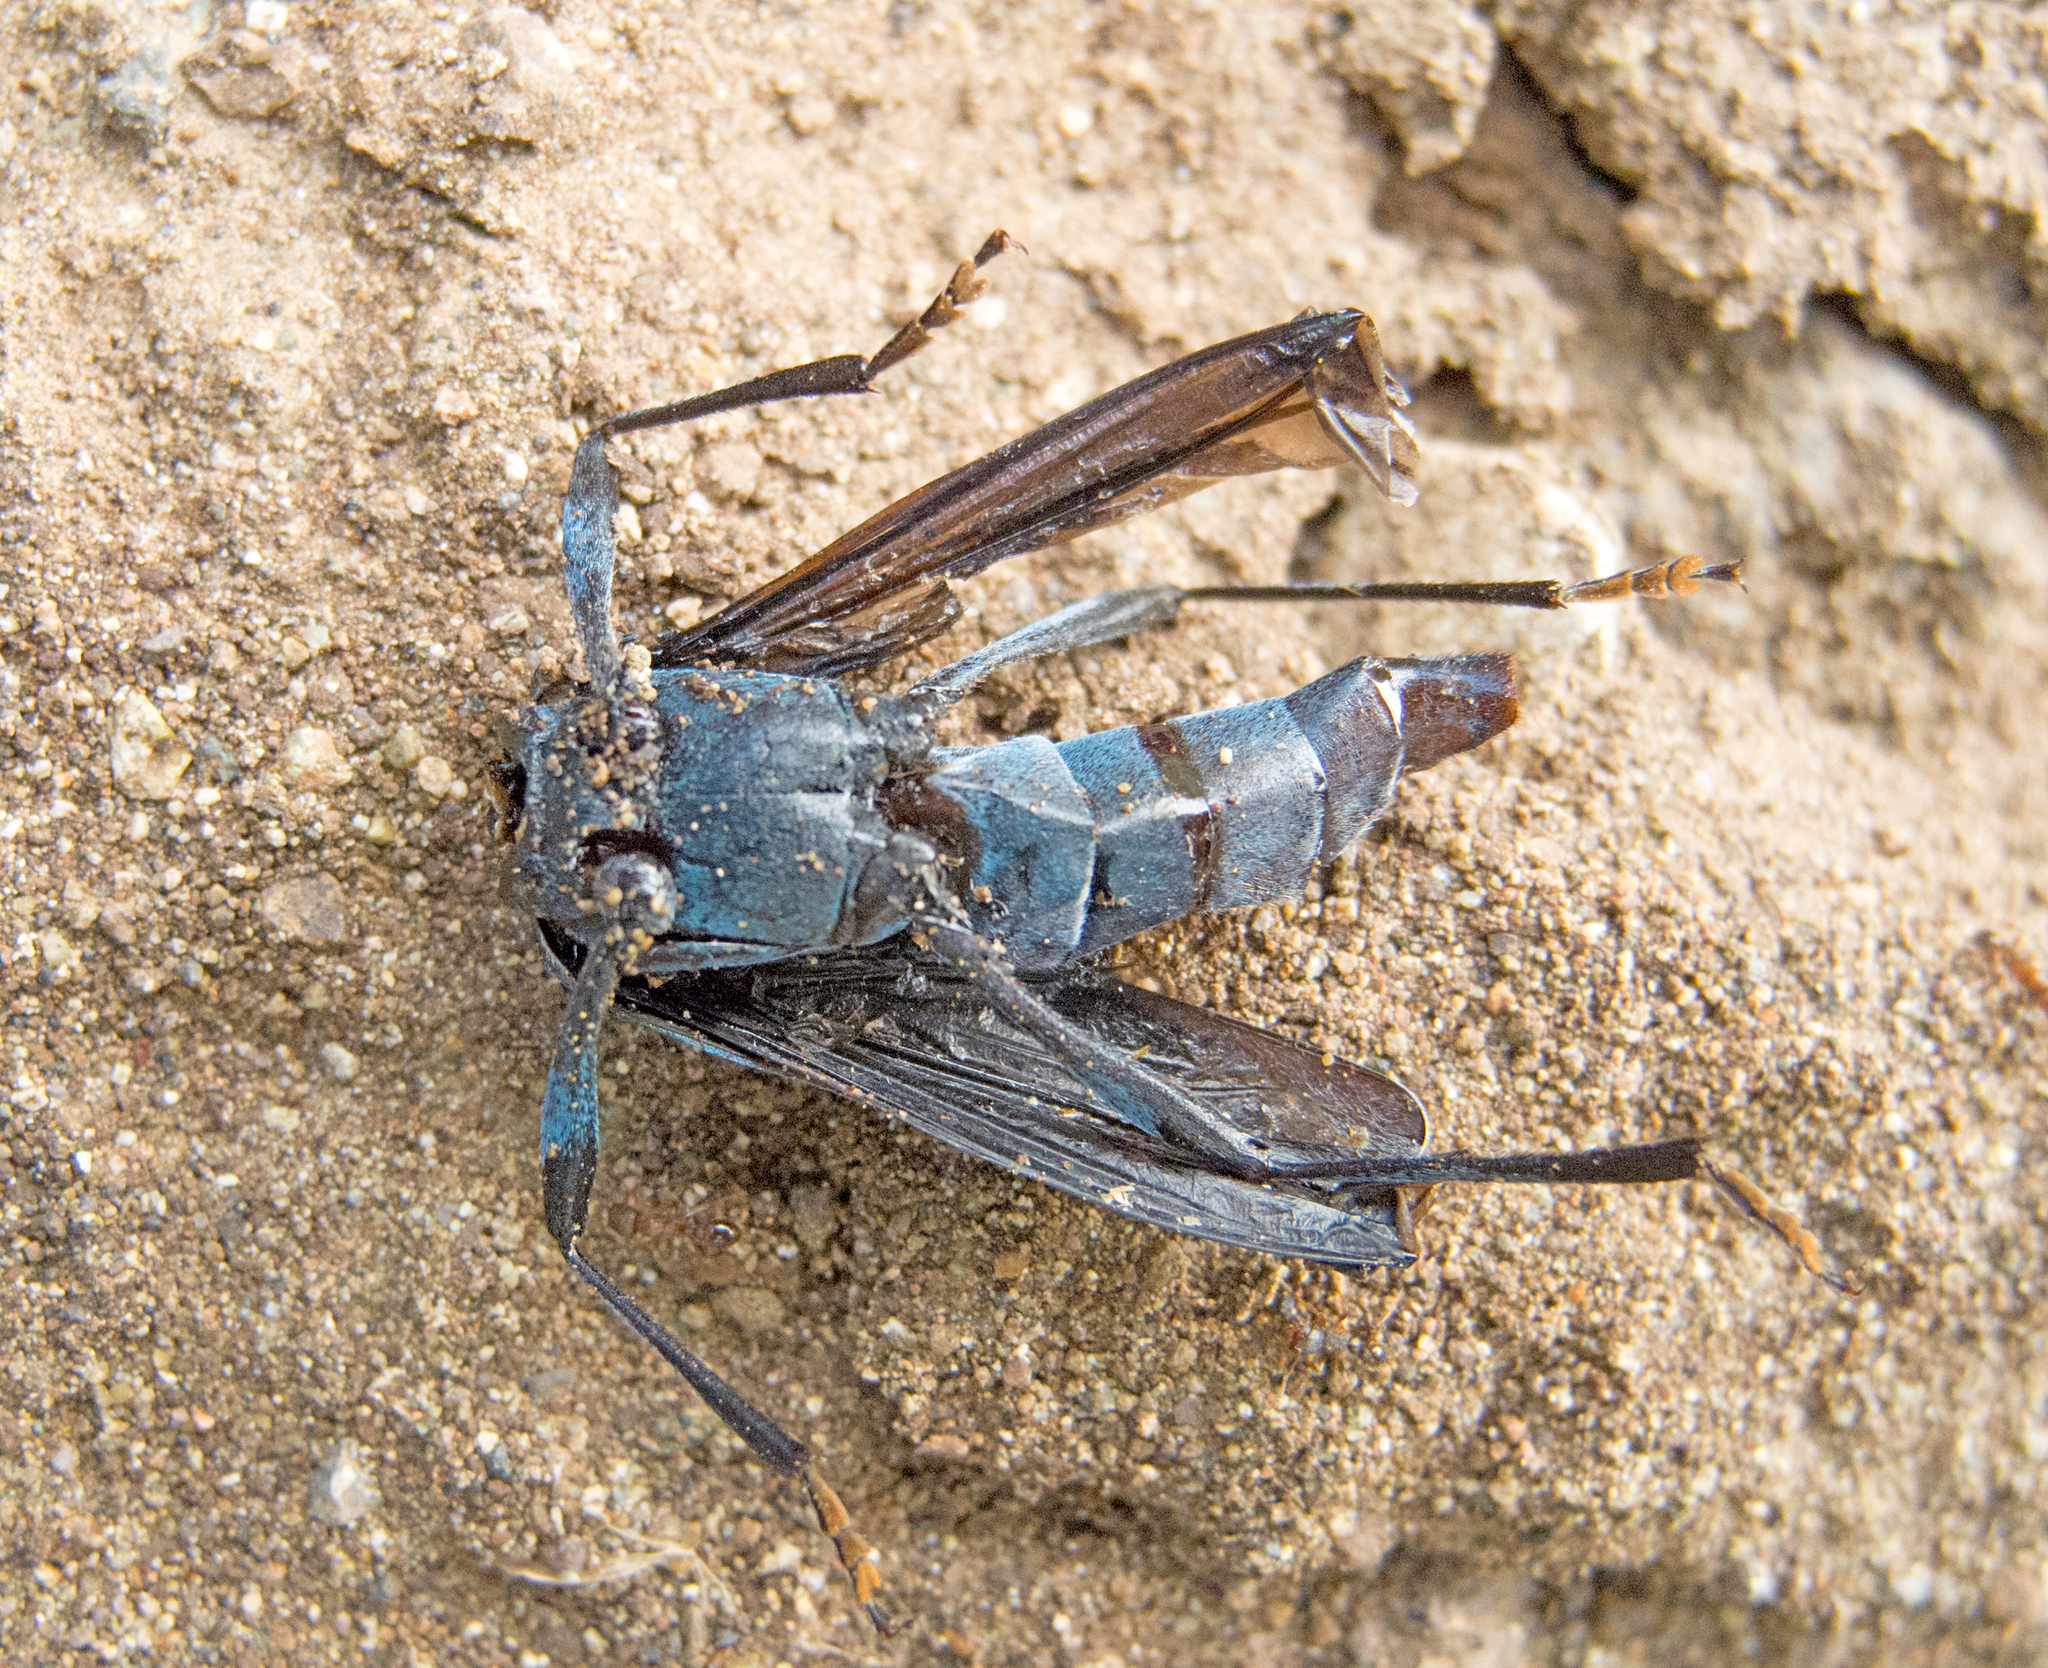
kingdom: Animalia
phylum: Arthropoda
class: Insecta
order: Coleoptera
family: Cerambycidae
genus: Rosalia
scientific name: Rosalia alpina
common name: Rosalia longicorn
